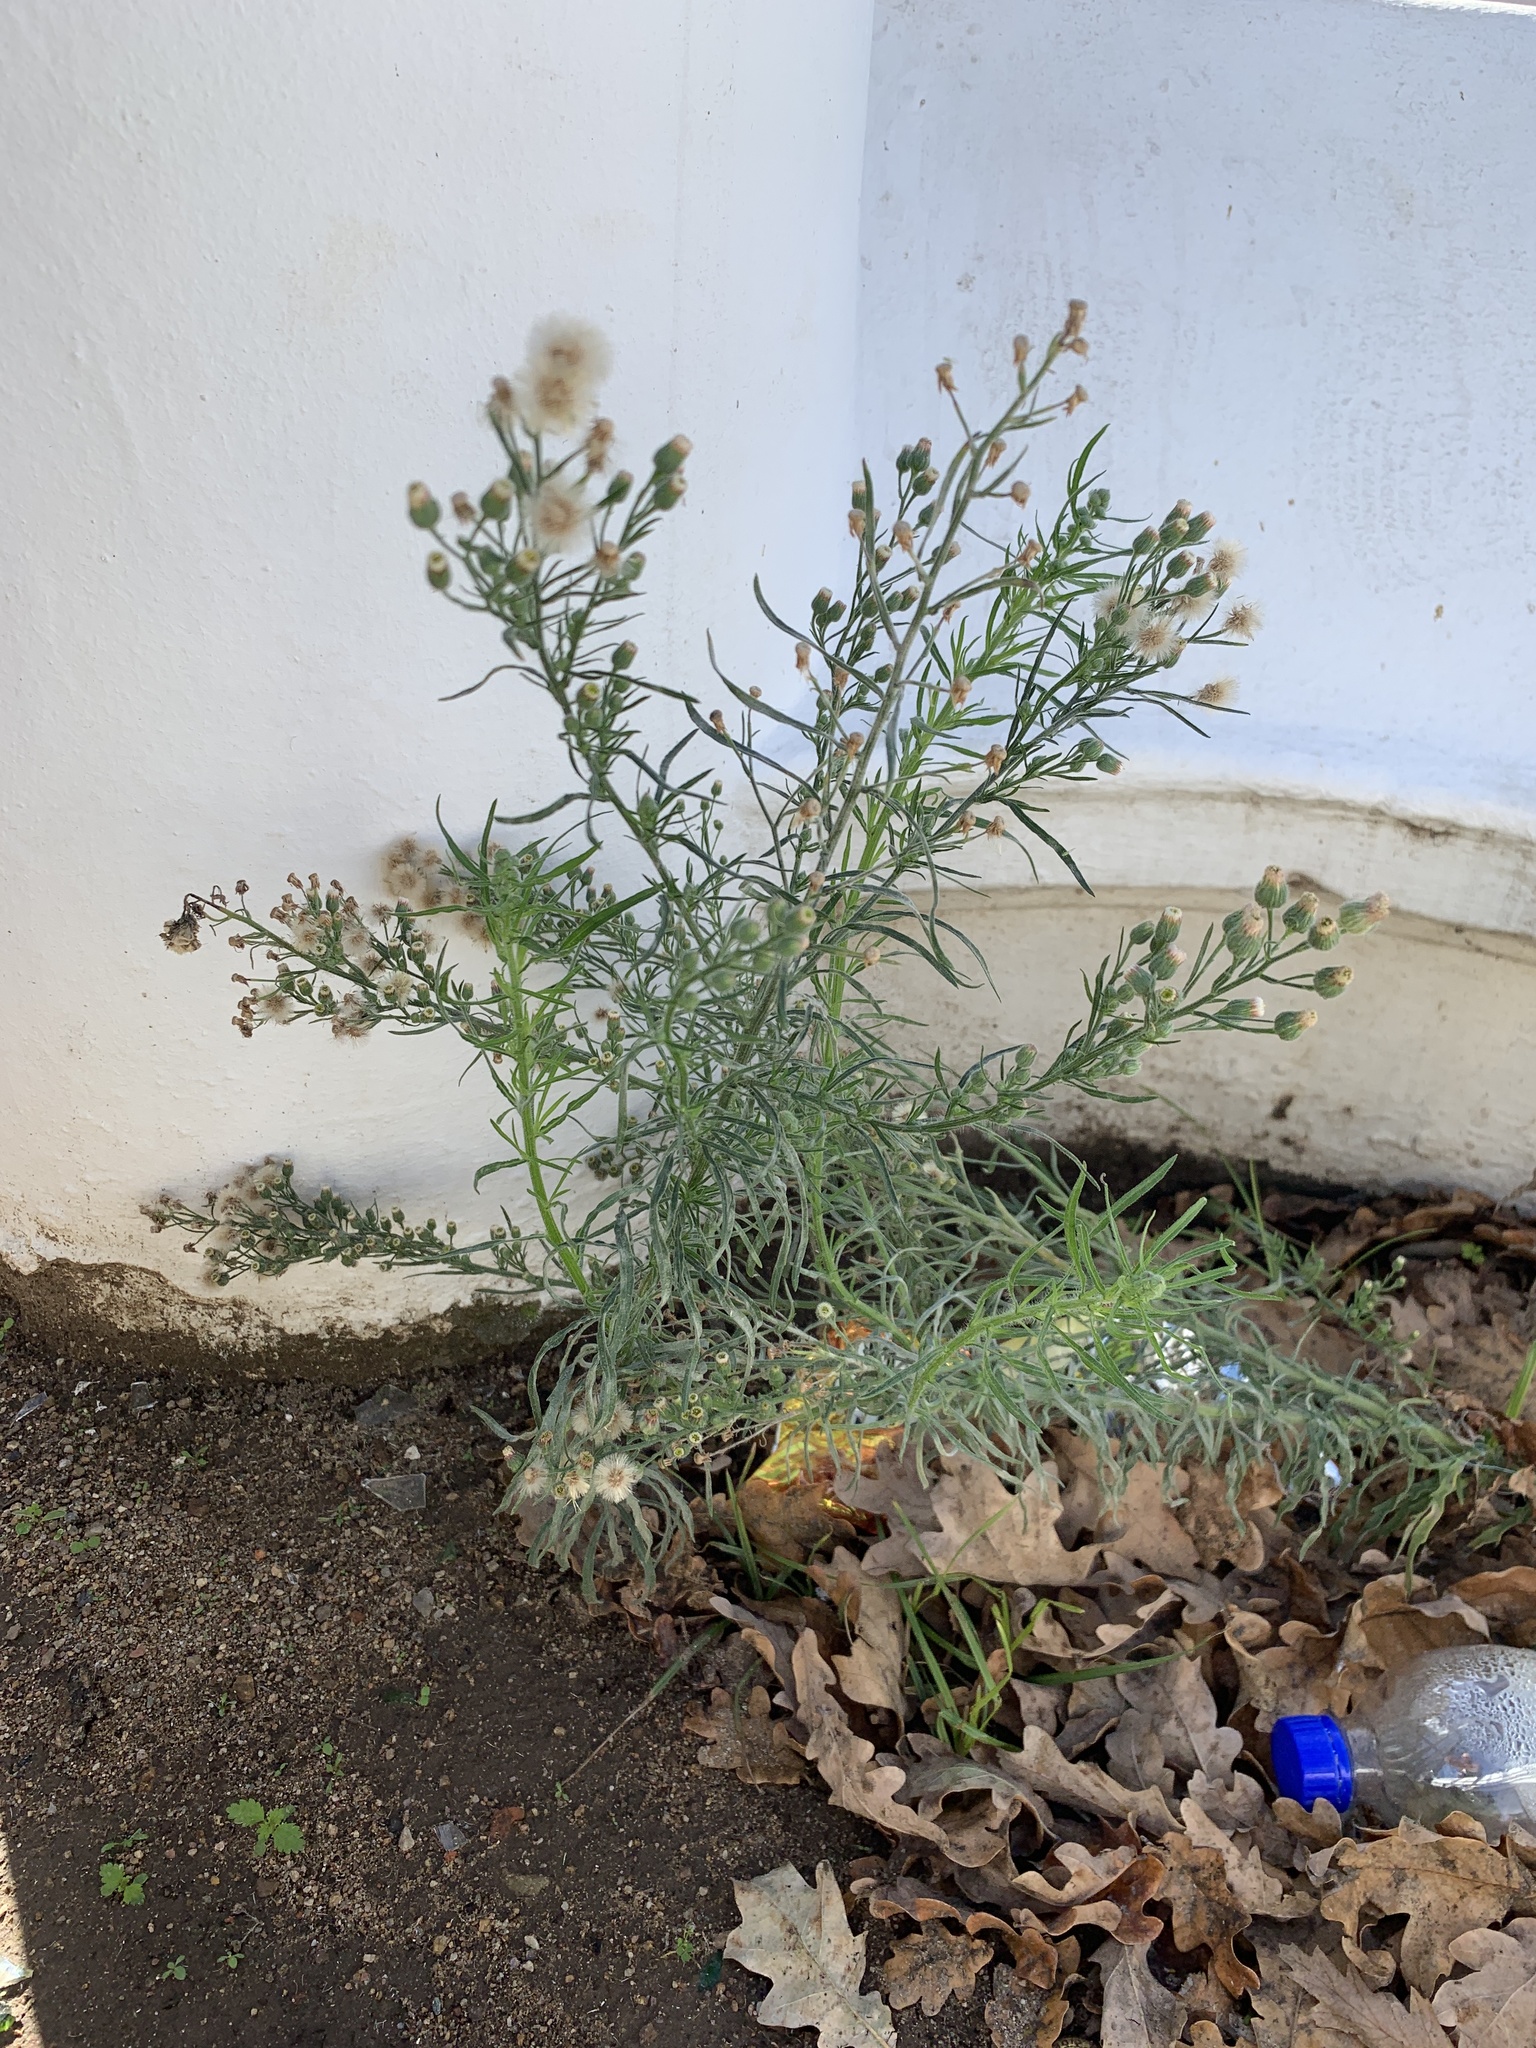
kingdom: Plantae
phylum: Tracheophyta
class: Magnoliopsida
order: Asterales
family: Asteraceae
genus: Erigeron
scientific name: Erigeron bonariensis
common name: Argentine fleabane
